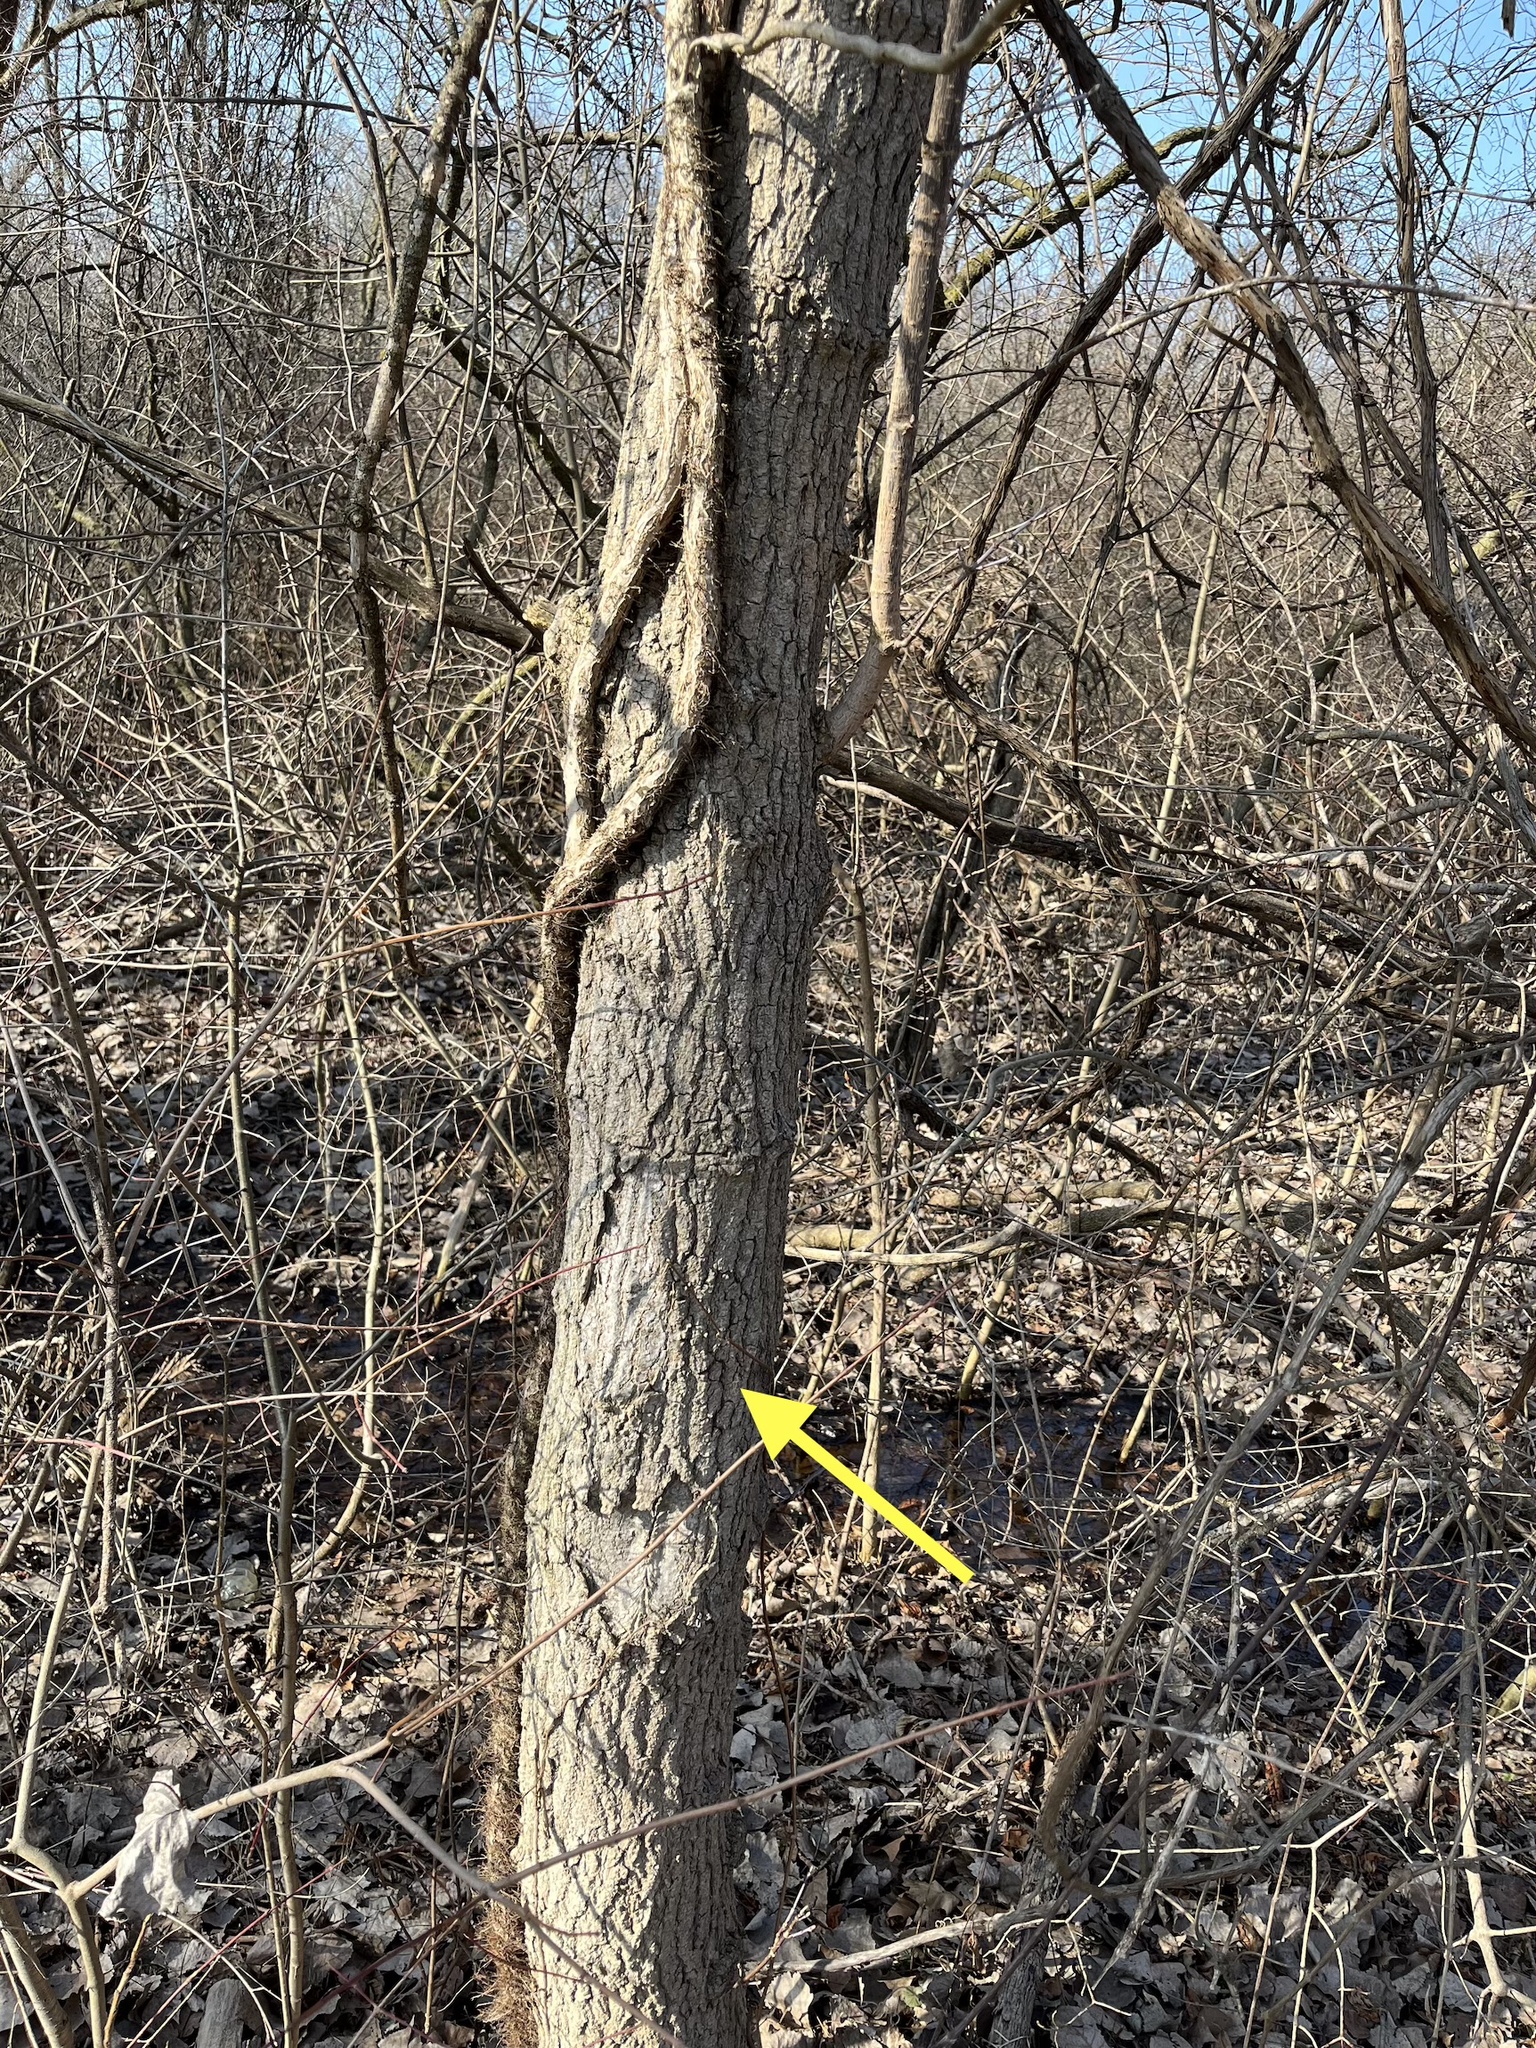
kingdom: Plantae
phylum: Tracheophyta
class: Magnoliopsida
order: Sapindales
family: Sapindaceae
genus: Acer
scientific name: Acer negundo
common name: Ashleaf maple
